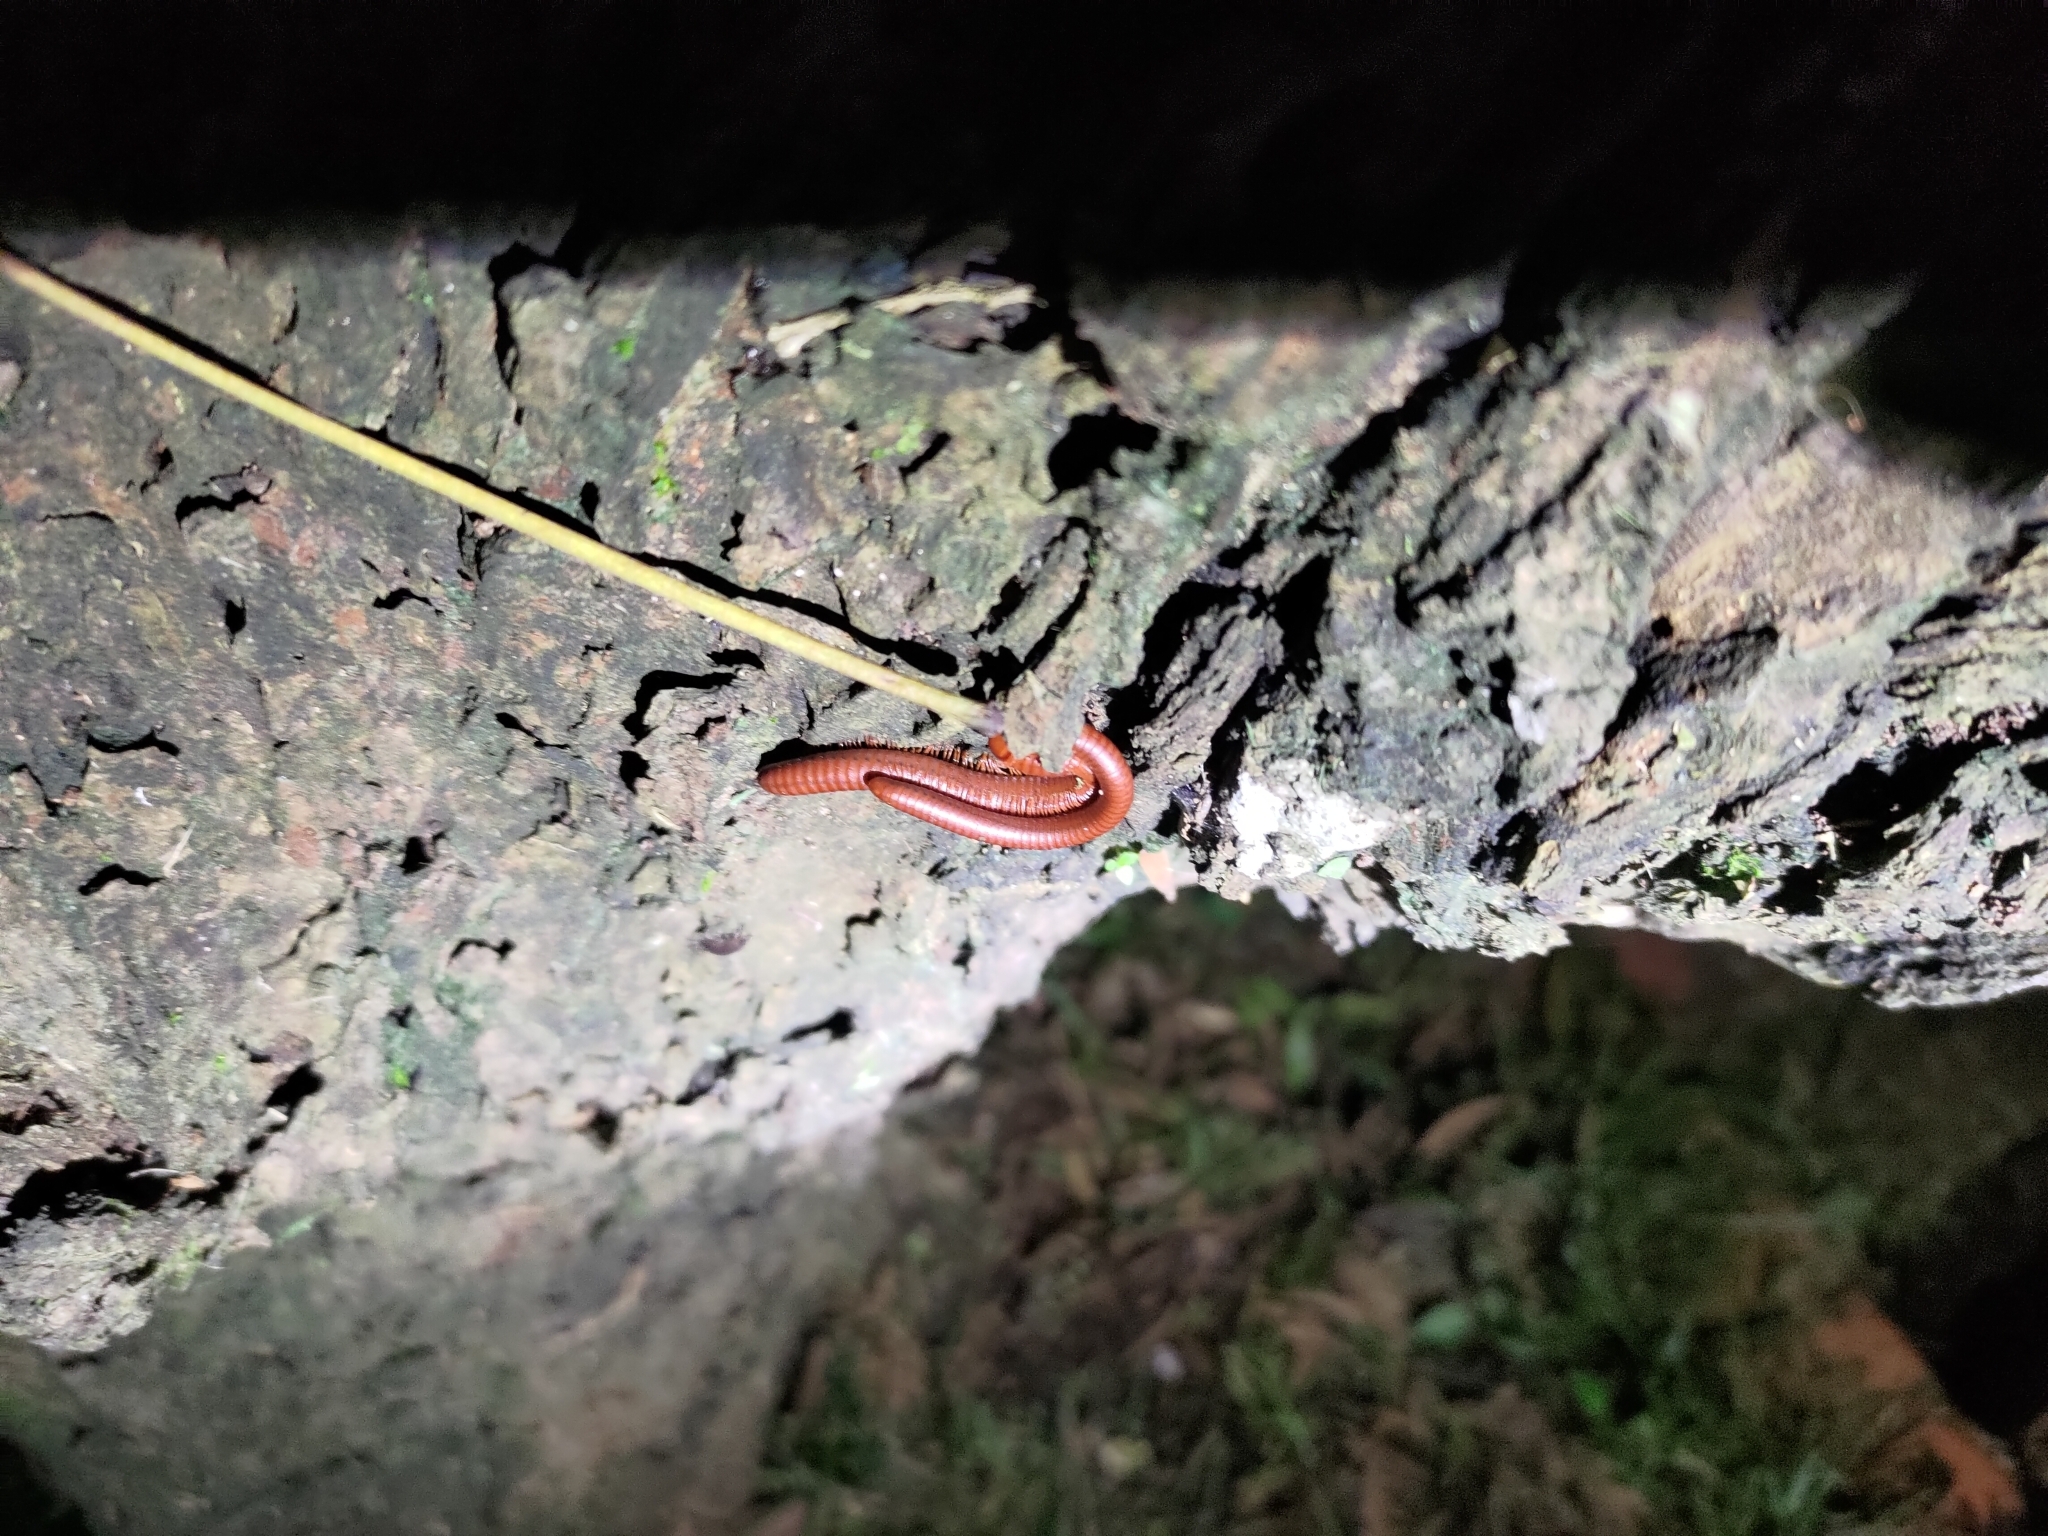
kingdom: Animalia
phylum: Arthropoda
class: Diplopoda
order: Spirobolida
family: Pachybolidae
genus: Trigoniulus
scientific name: Trigoniulus corallinus
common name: Millipede
